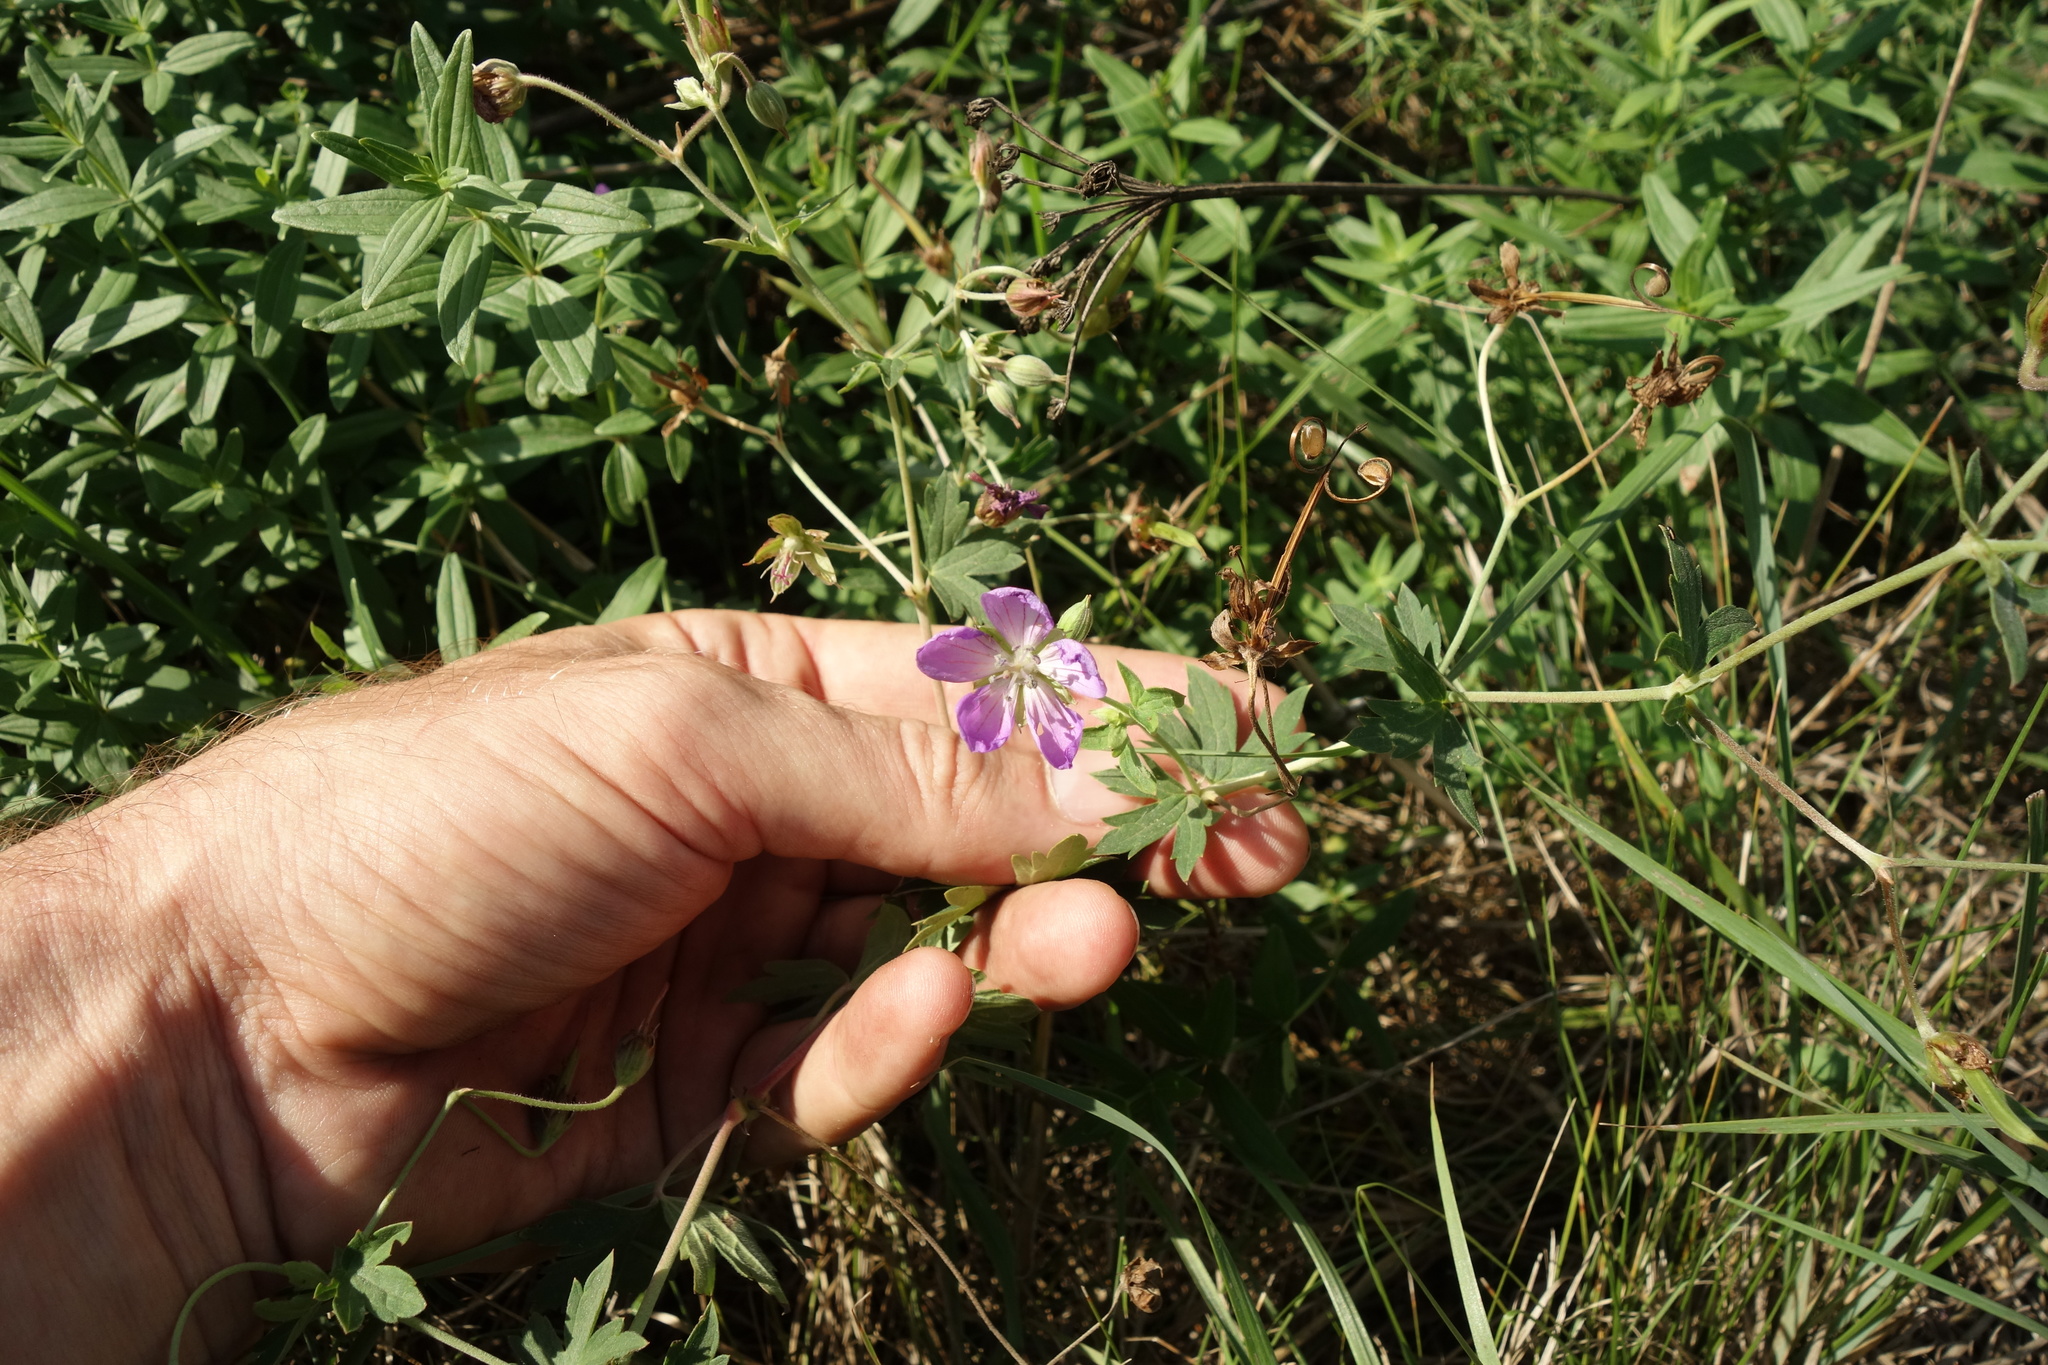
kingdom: Plantae
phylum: Tracheophyta
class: Magnoliopsida
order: Geraniales
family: Geraniaceae
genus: Geranium
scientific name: Geranium collinum
